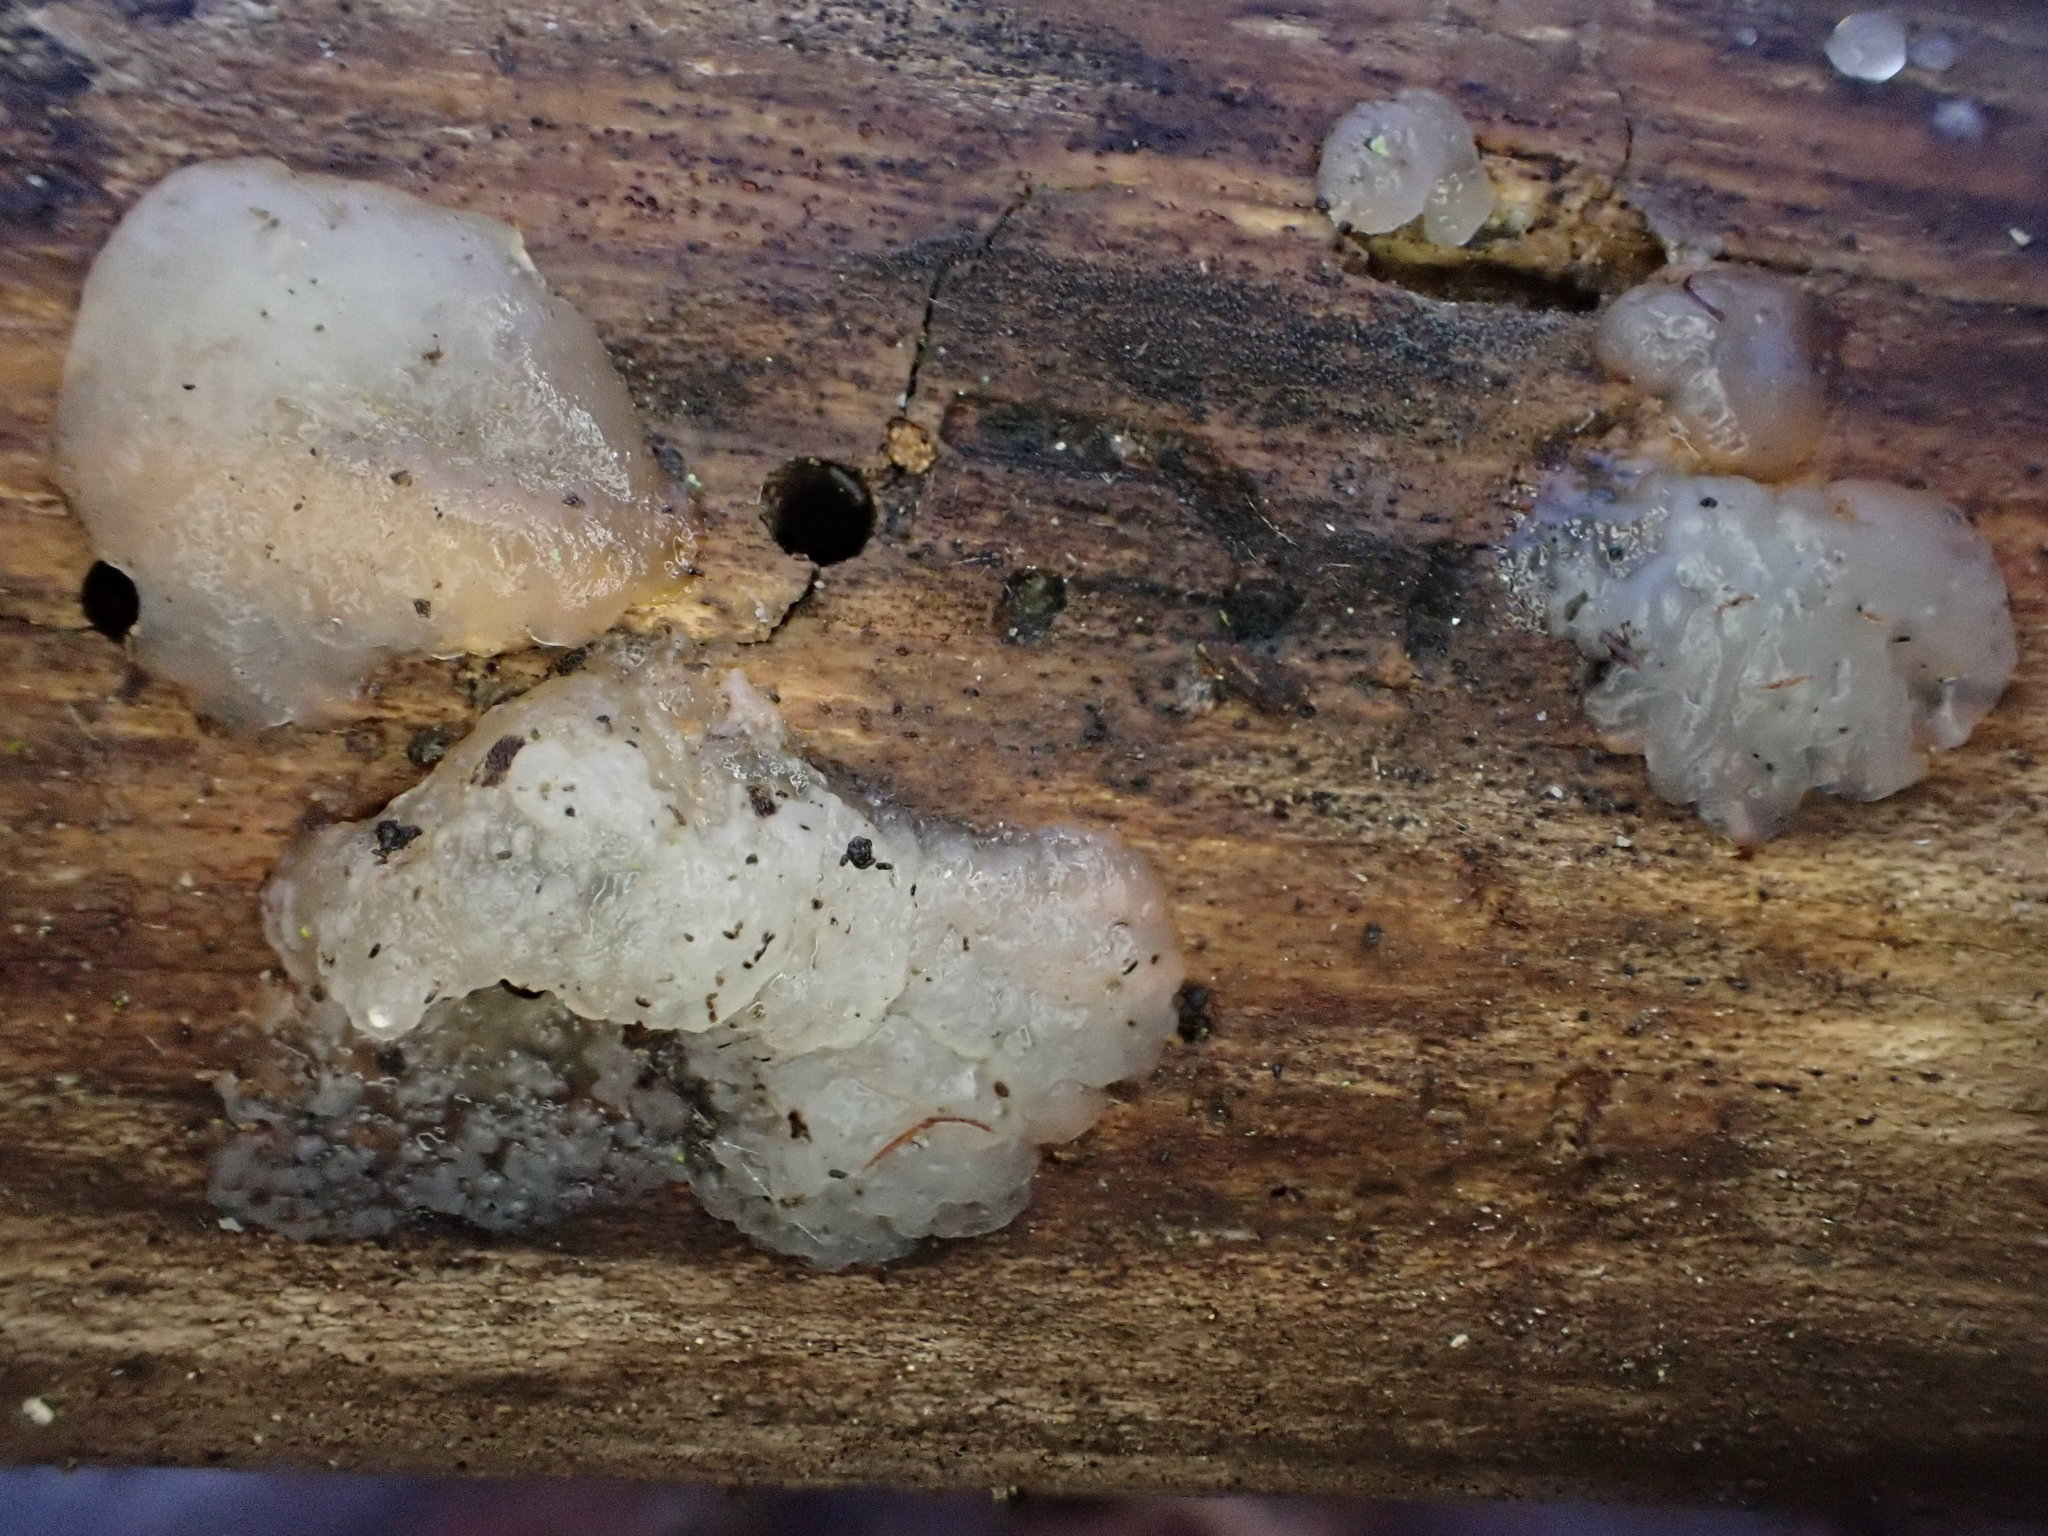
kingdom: Fungi
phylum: Basidiomycota
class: Agaricomycetes
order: Auriculariales
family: Hyaloriaceae
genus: Myxarium
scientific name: Myxarium nucleatum
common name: Crystal brain fungus
